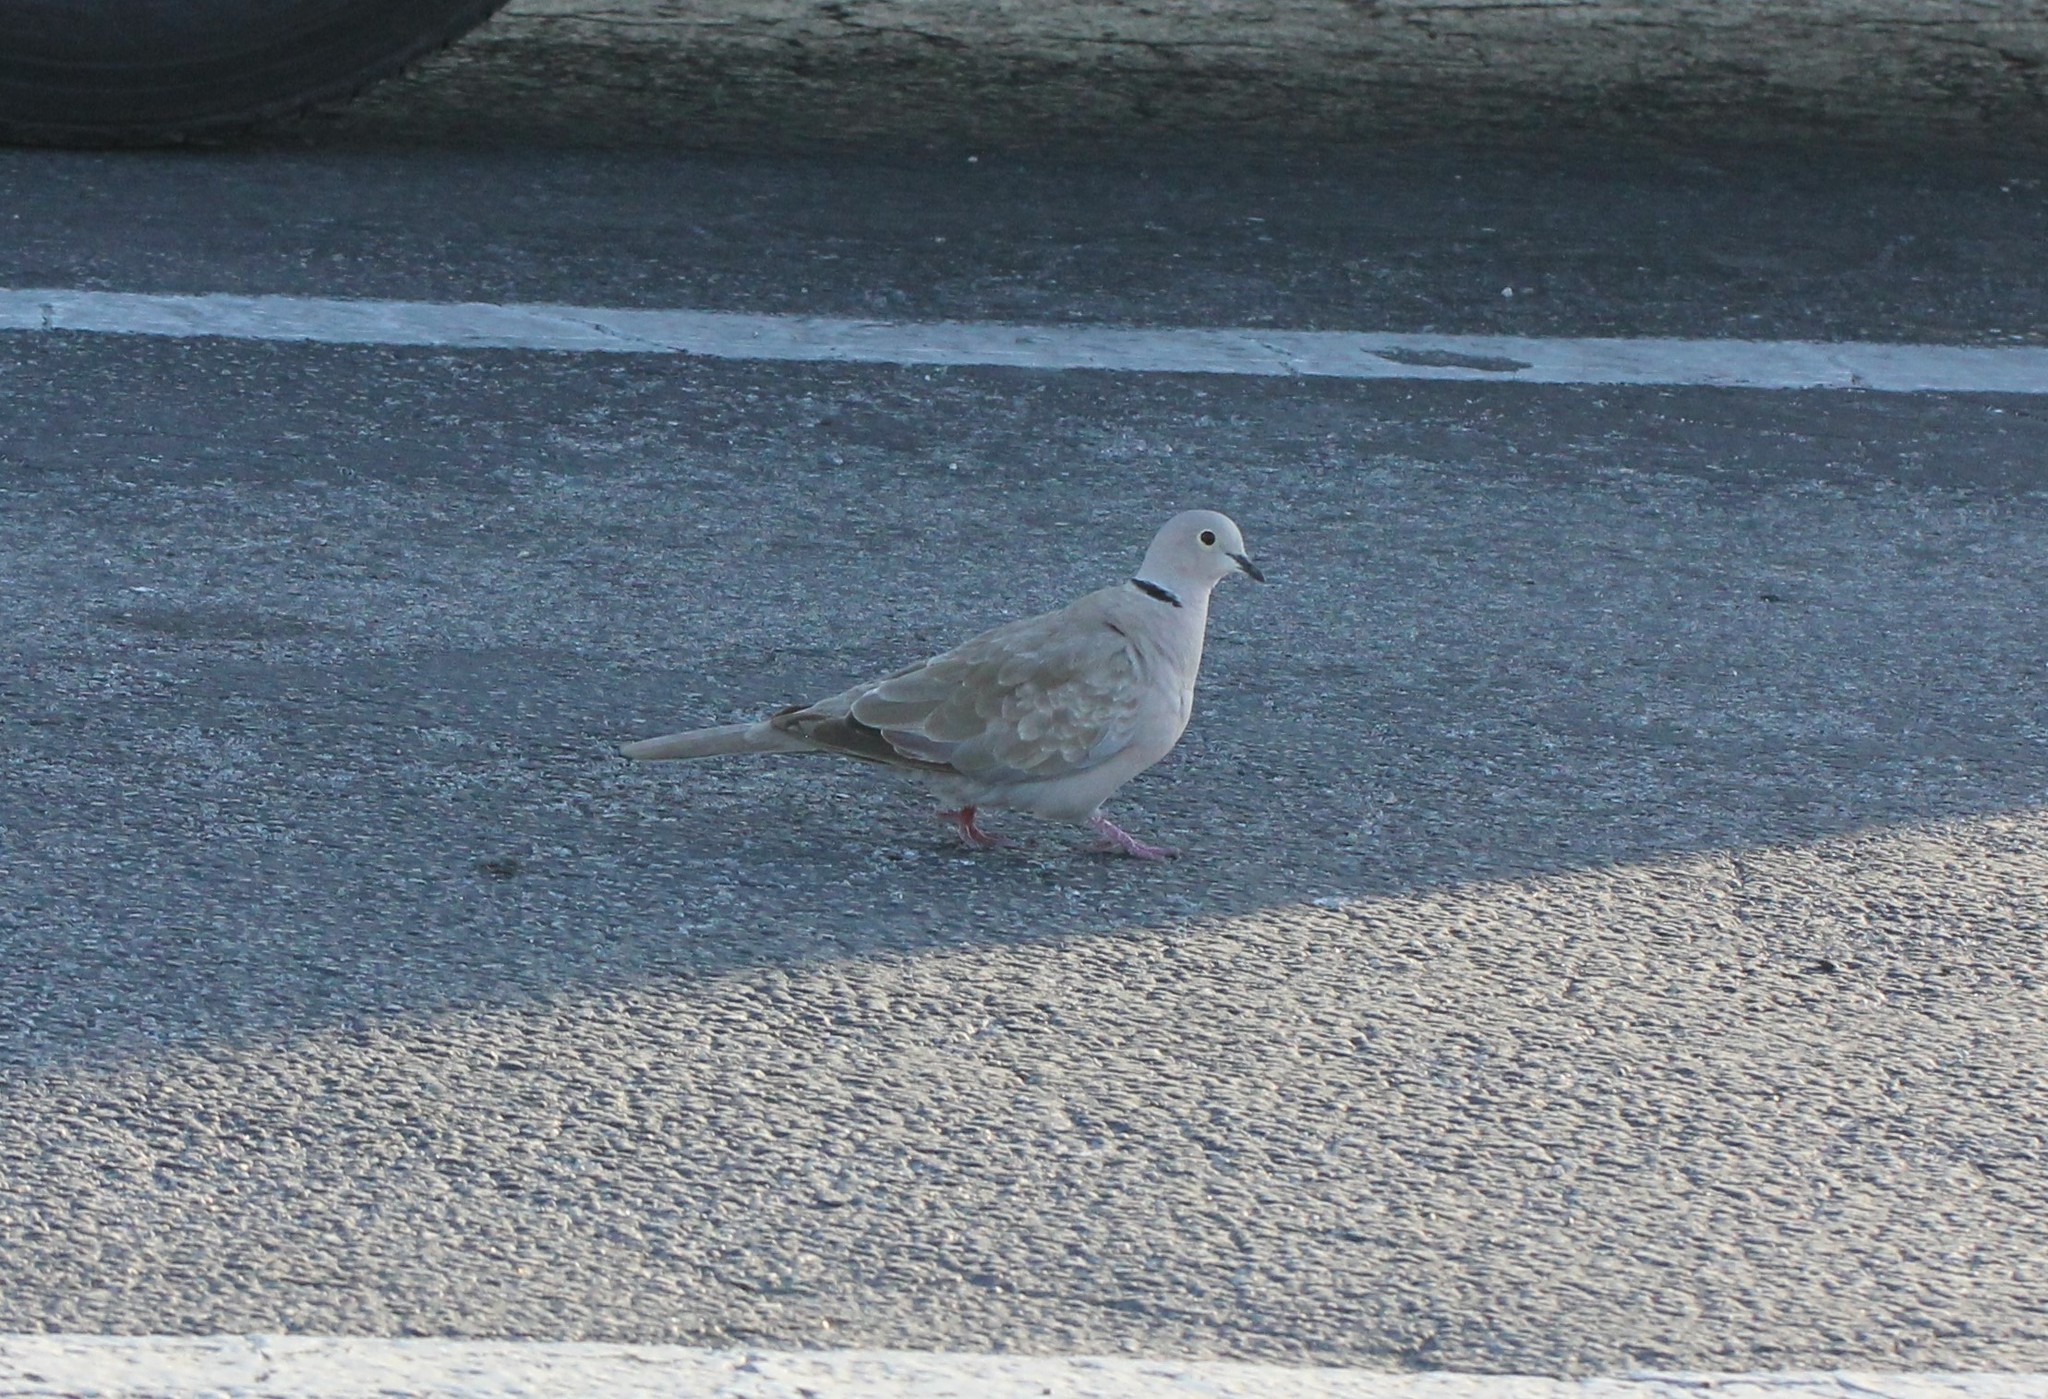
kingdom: Animalia
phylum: Chordata
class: Aves
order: Columbiformes
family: Columbidae
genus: Streptopelia
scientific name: Streptopelia decaocto
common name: Eurasian collared dove
